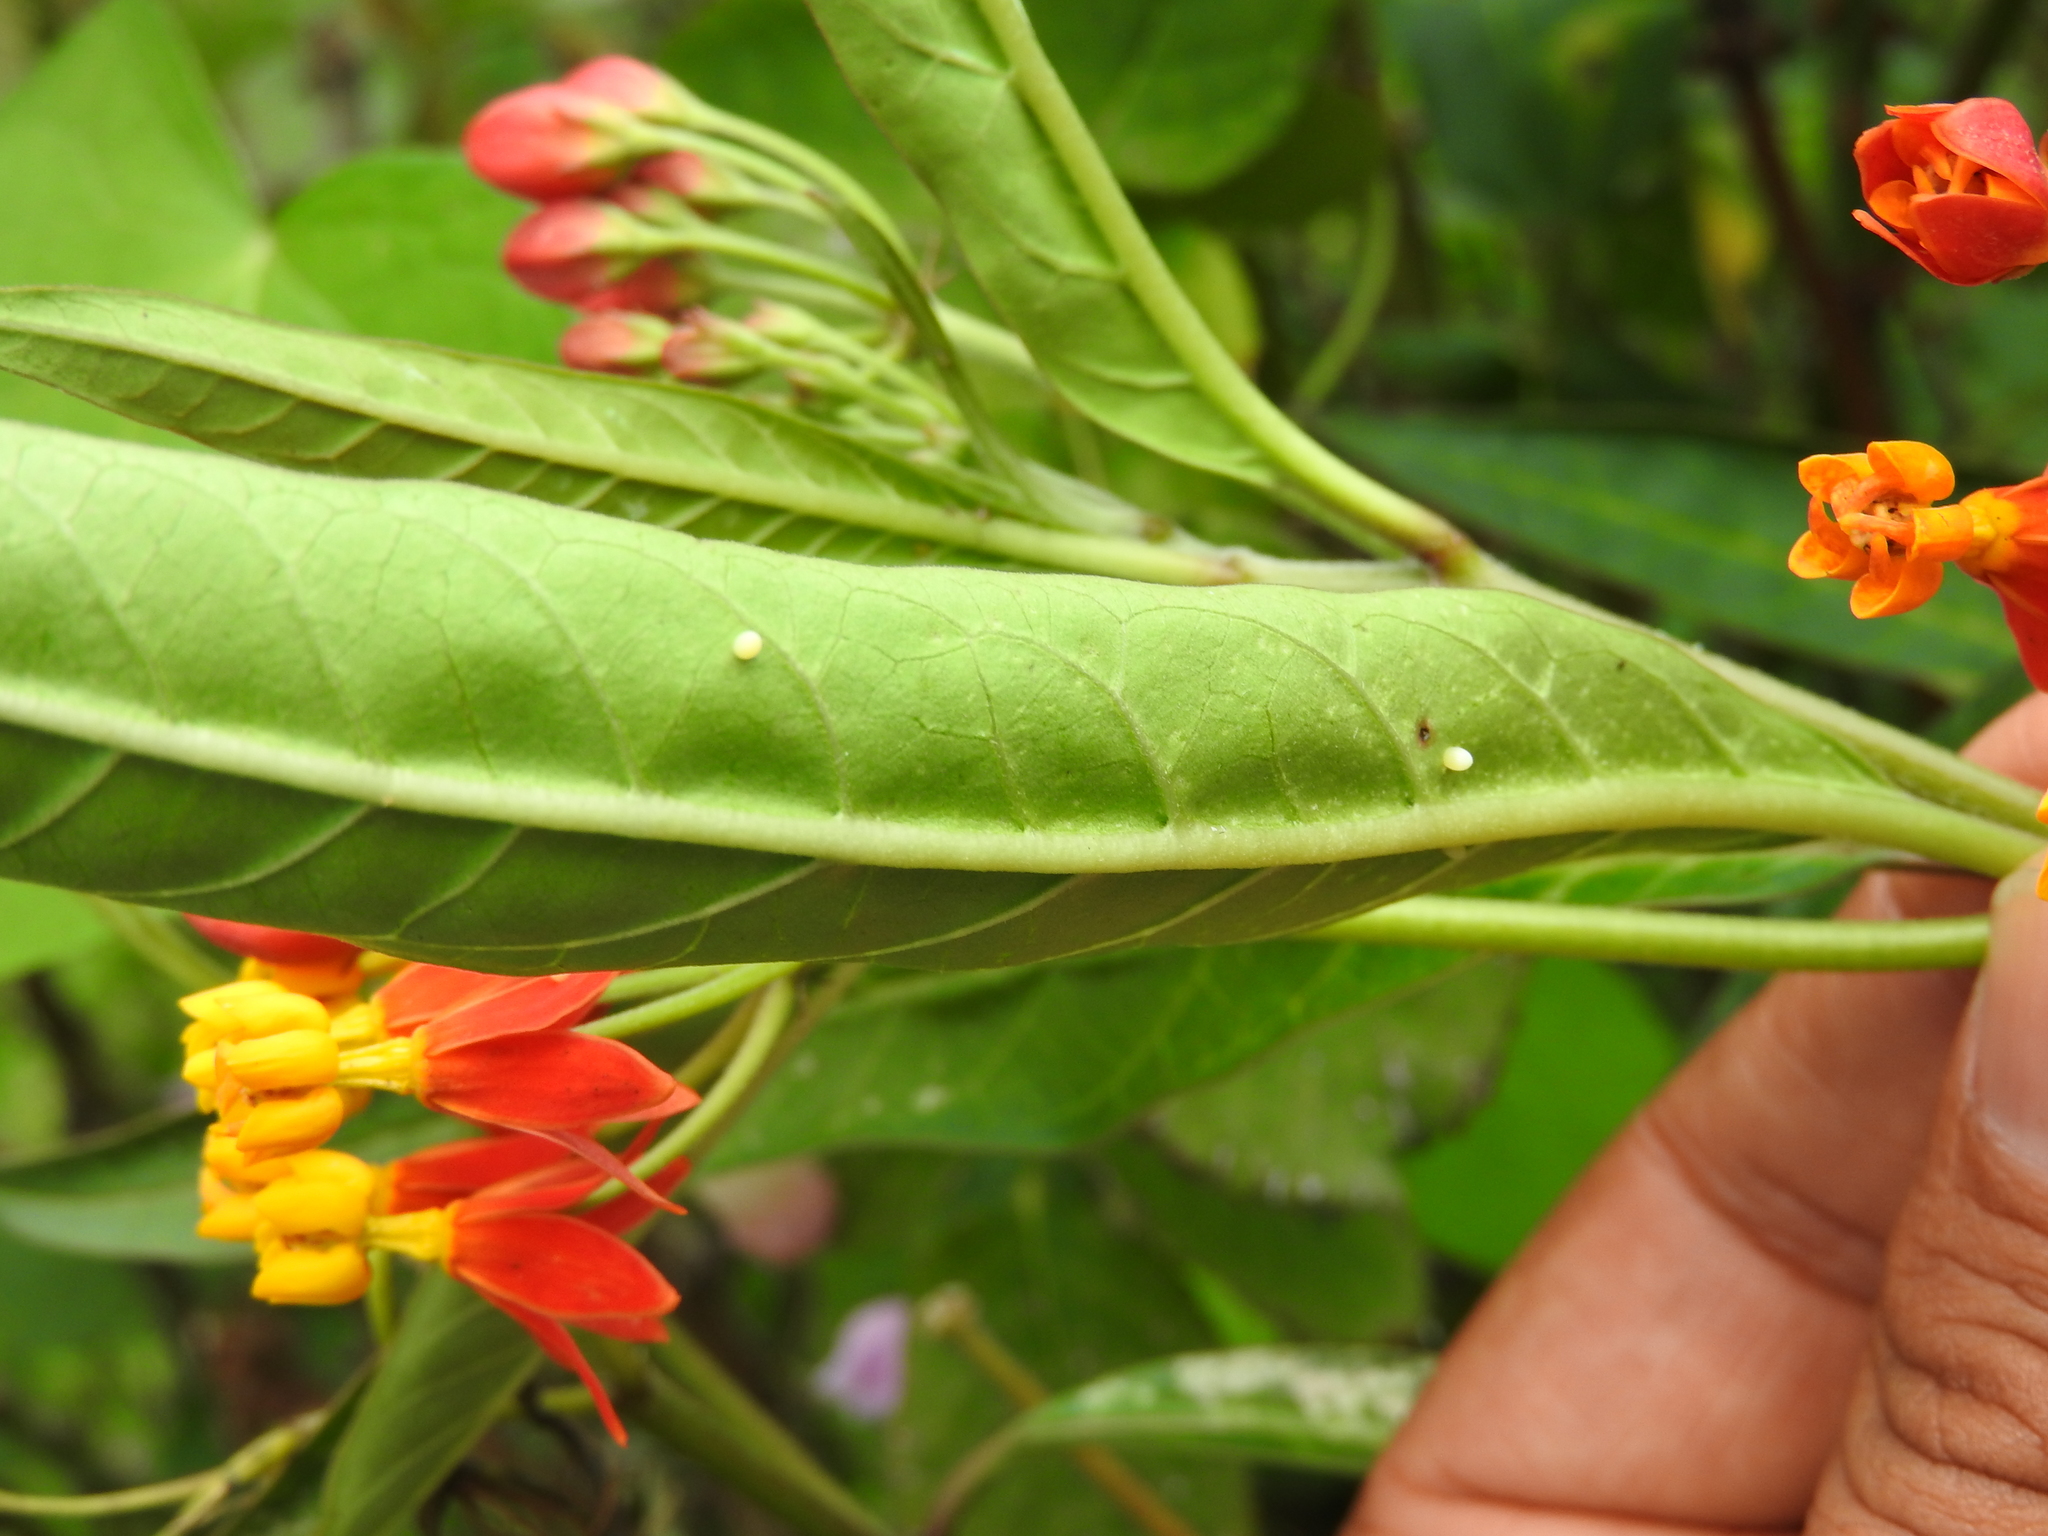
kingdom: Animalia
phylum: Arthropoda
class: Insecta
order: Lepidoptera
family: Nymphalidae
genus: Danaus
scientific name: Danaus plexippus
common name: Monarch
